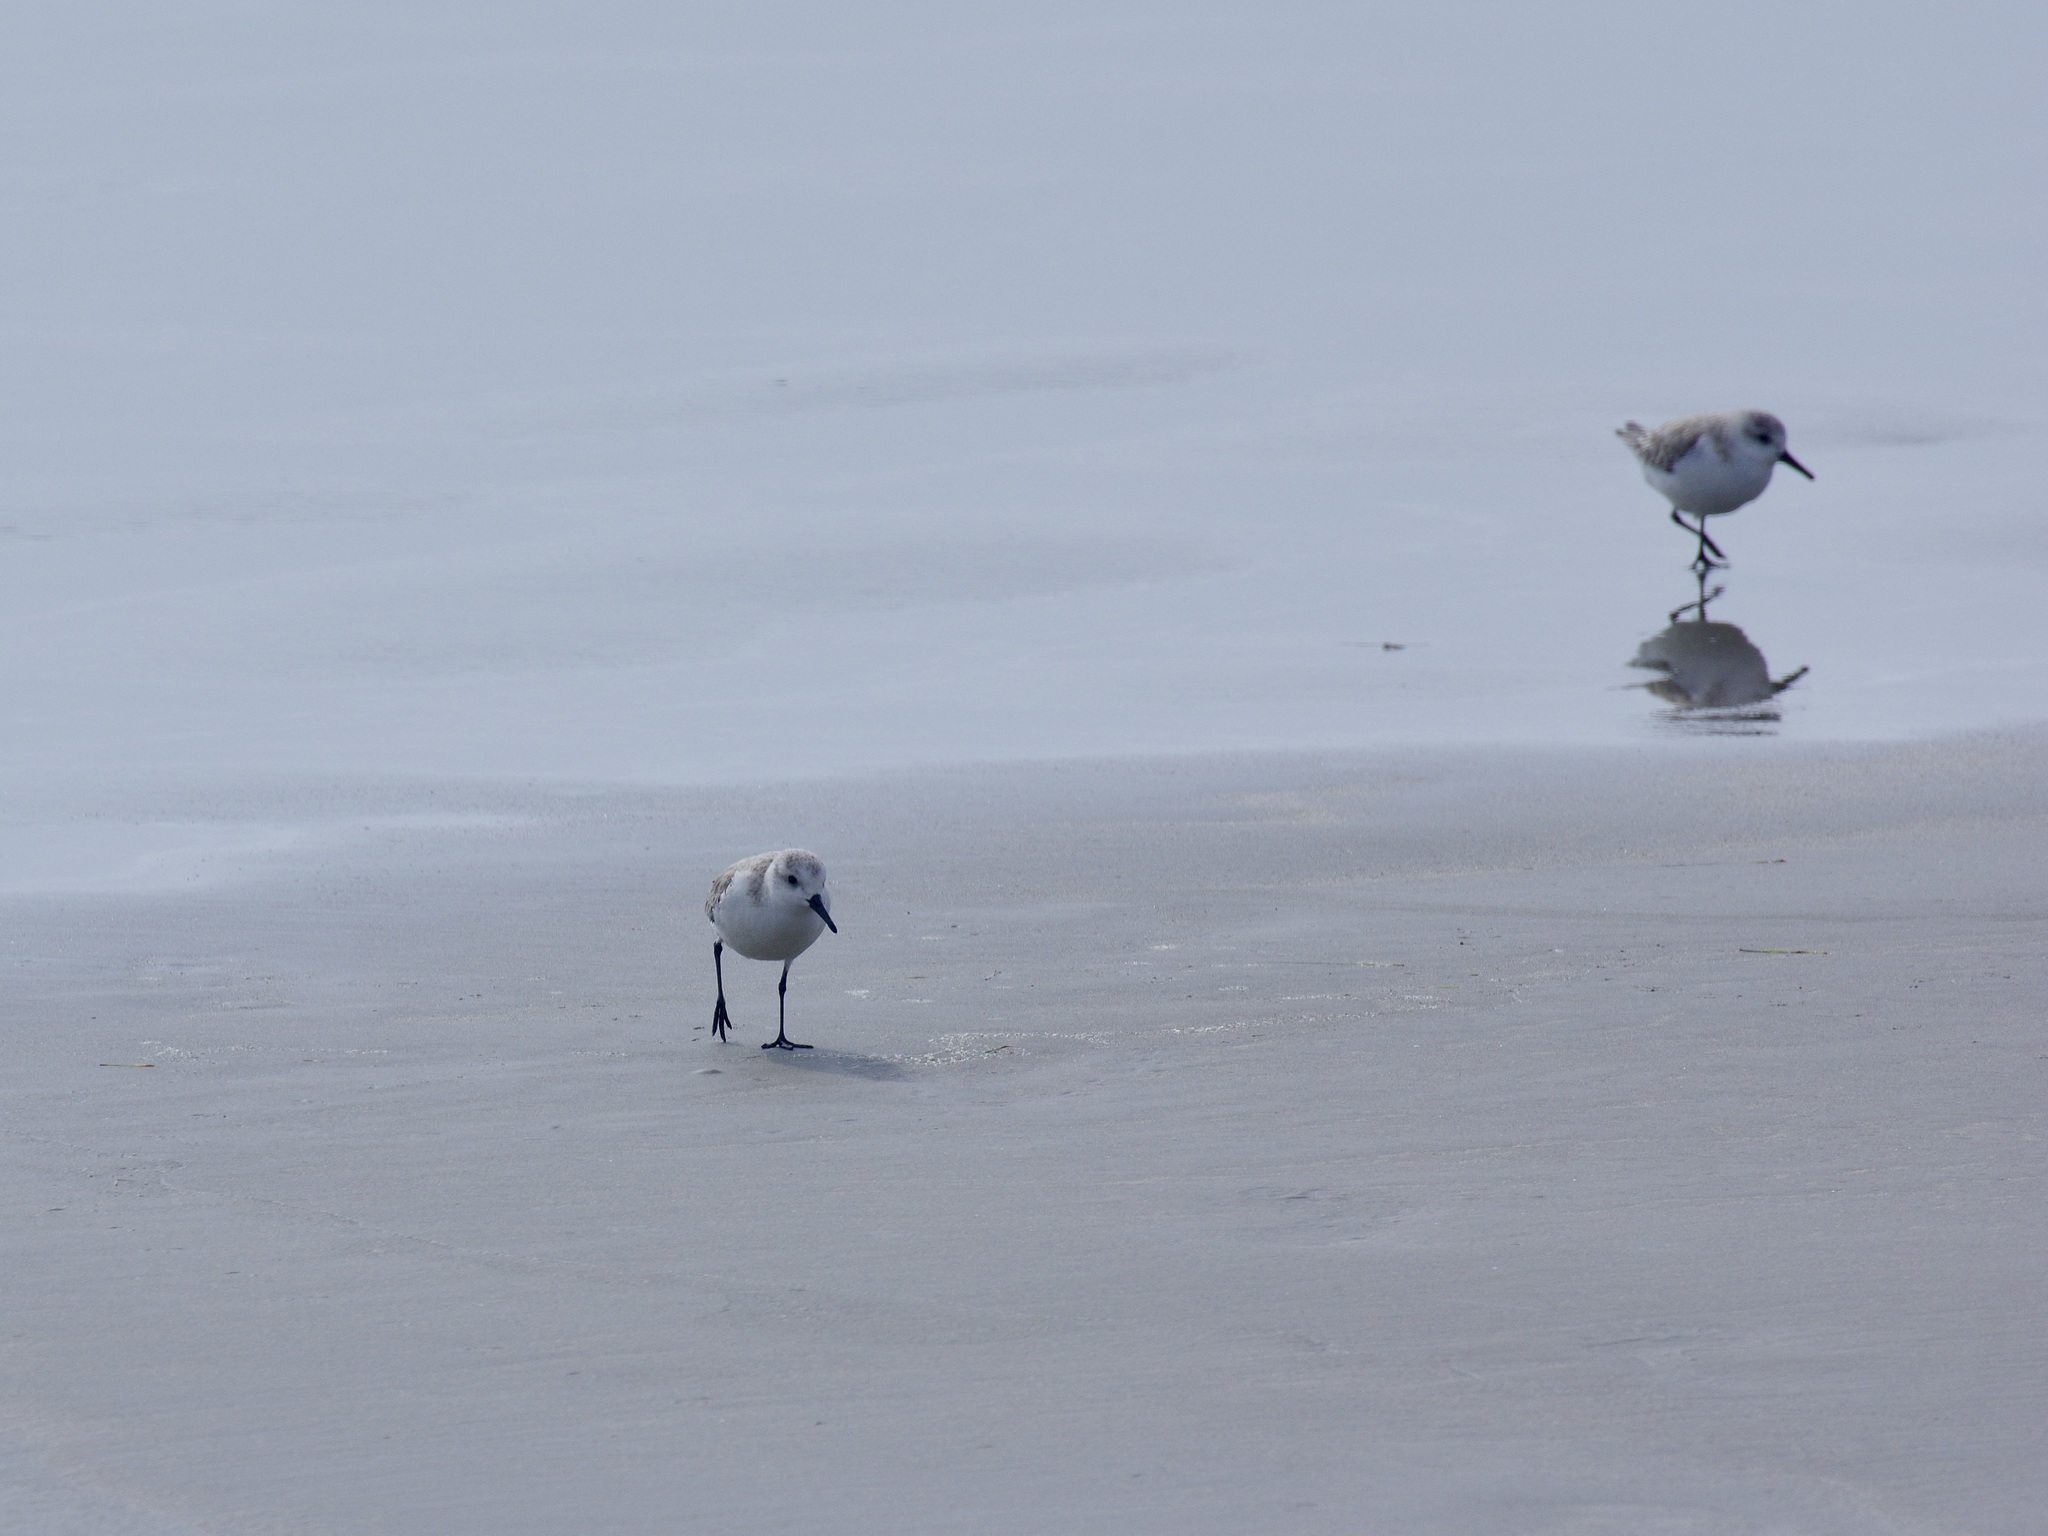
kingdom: Animalia
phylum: Chordata
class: Aves
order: Charadriiformes
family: Scolopacidae
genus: Calidris
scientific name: Calidris alba
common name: Sanderling
